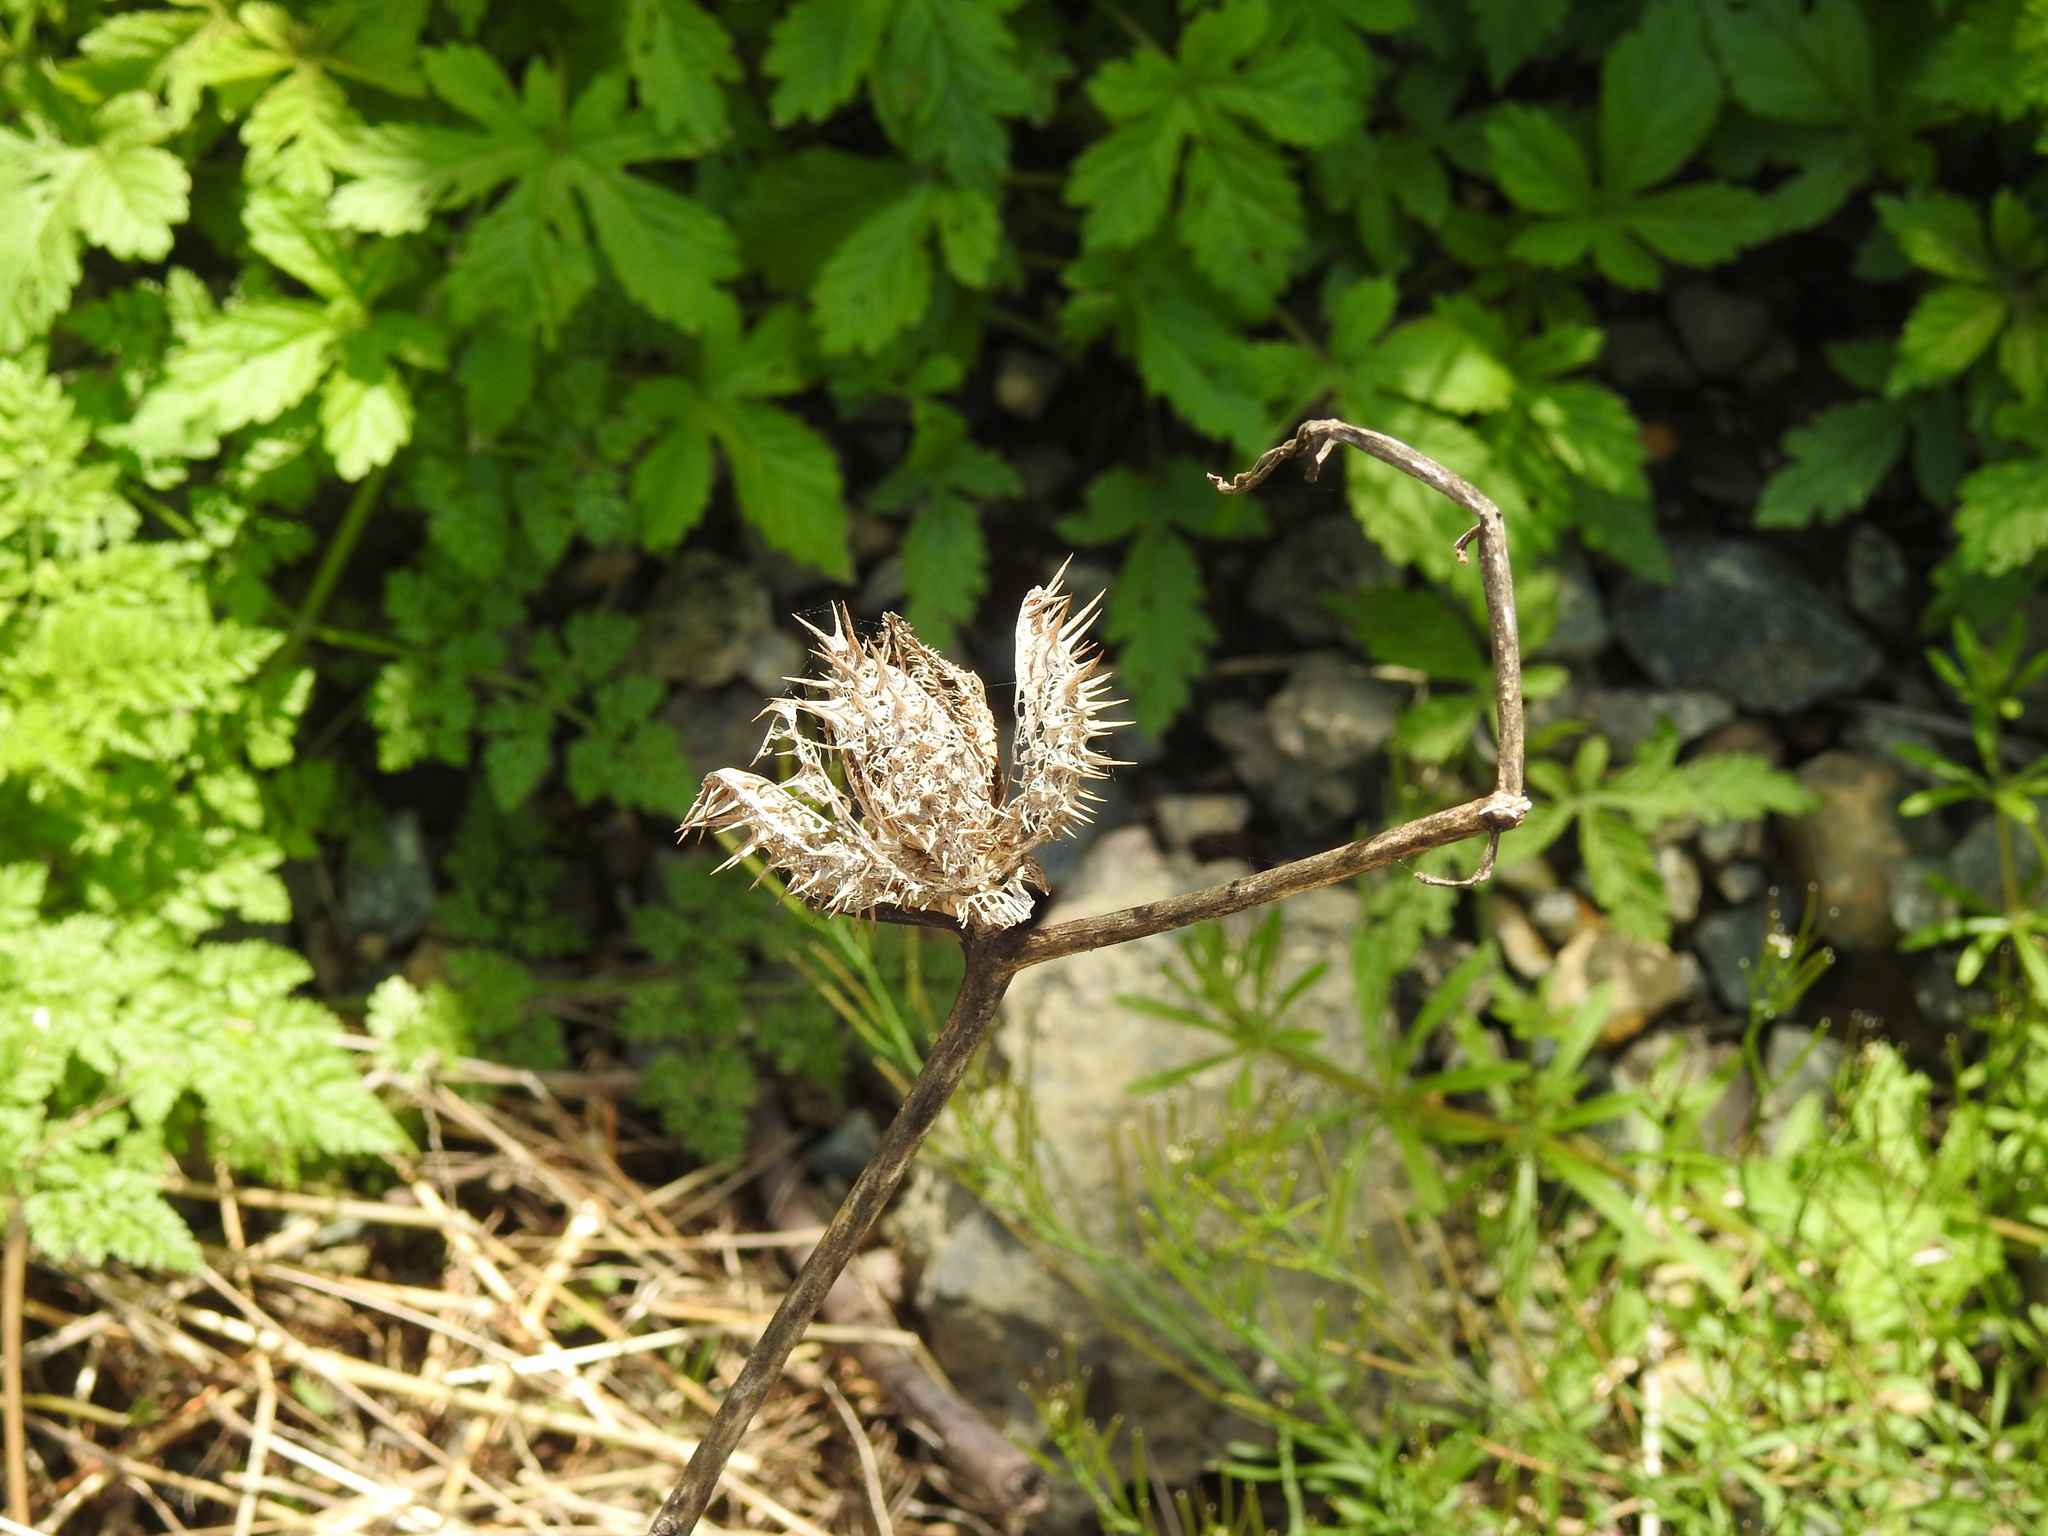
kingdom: Plantae
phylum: Tracheophyta
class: Magnoliopsida
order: Solanales
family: Solanaceae
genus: Datura
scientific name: Datura stramonium
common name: Thorn-apple
